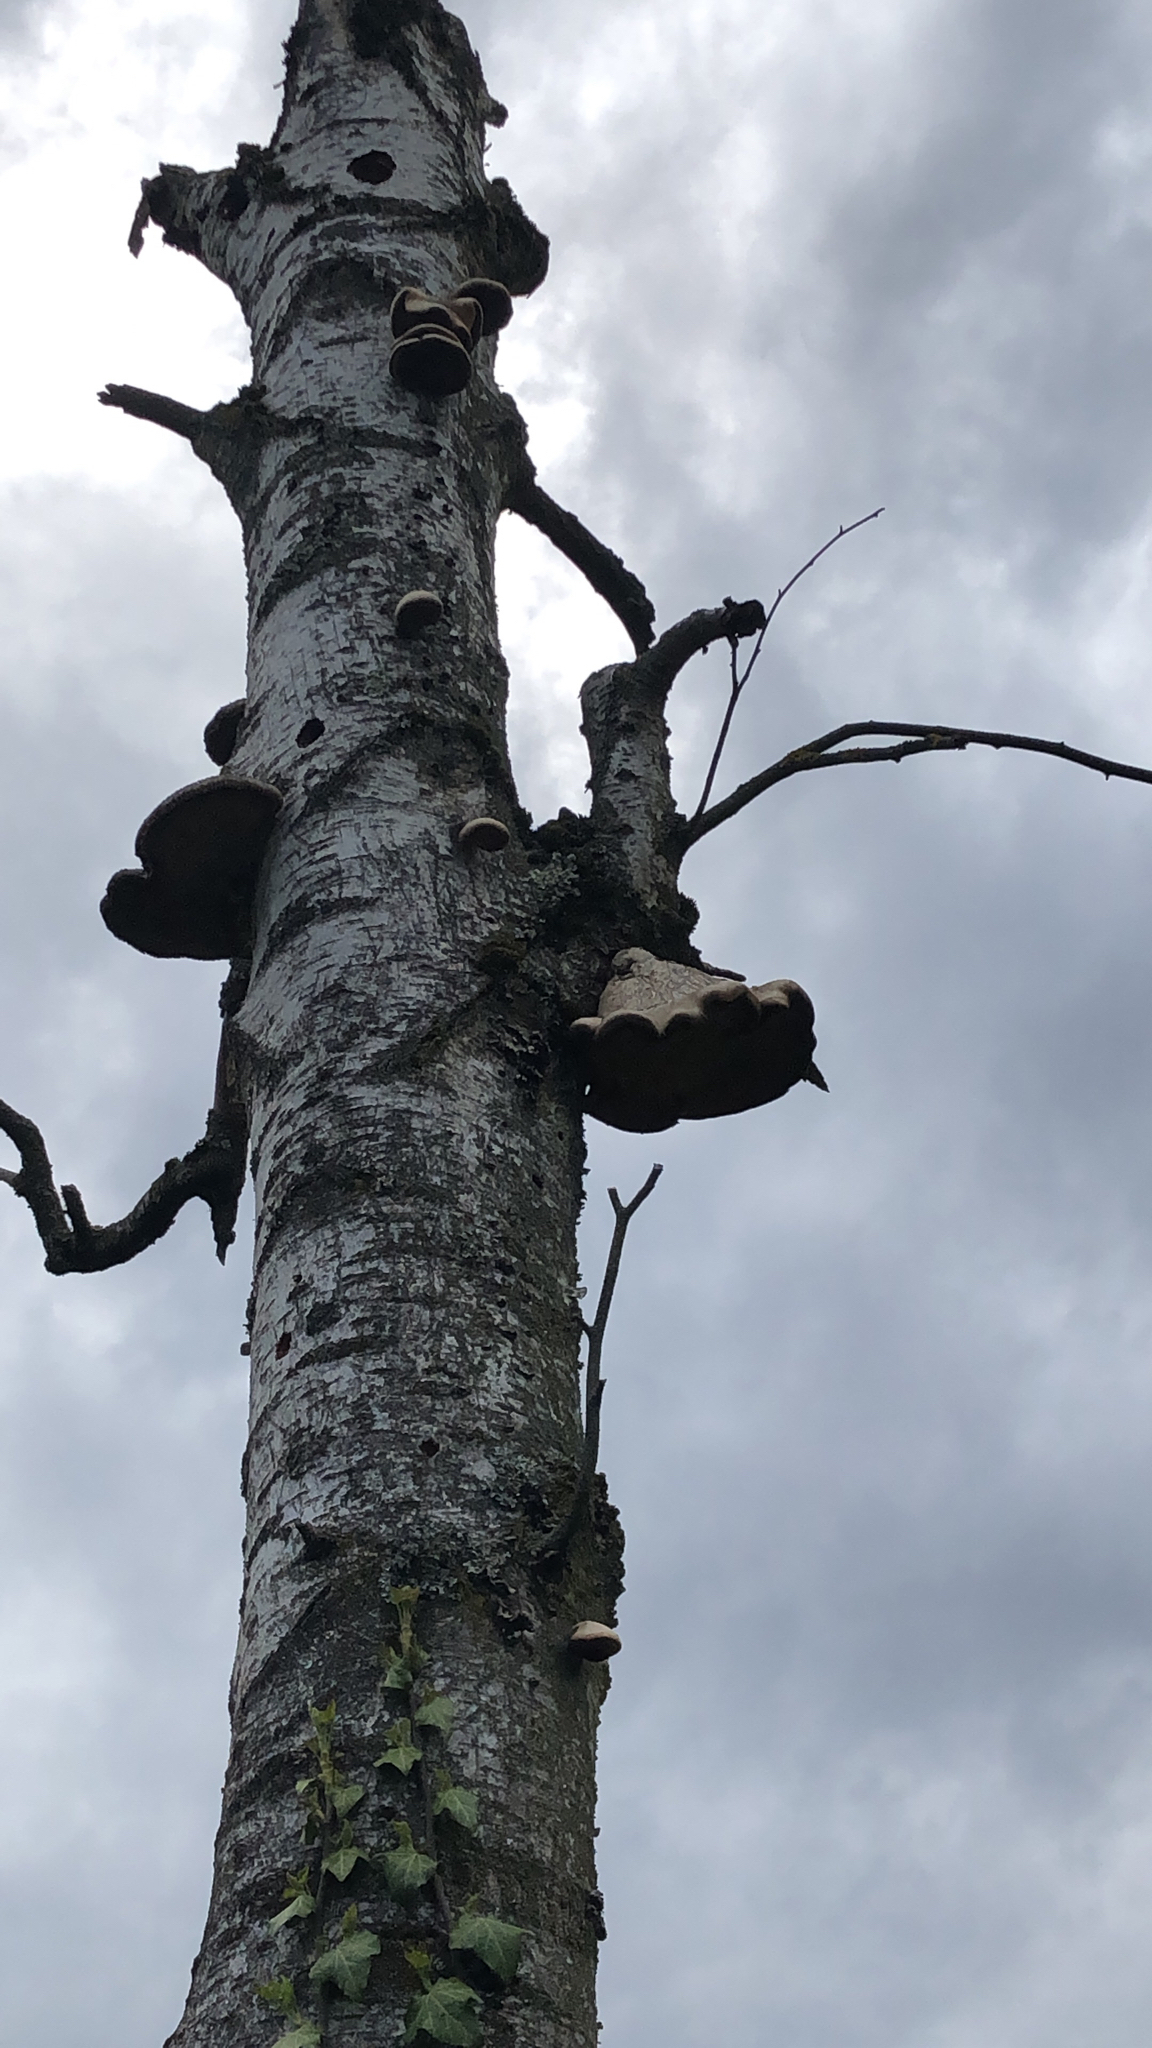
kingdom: Fungi
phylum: Basidiomycota
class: Agaricomycetes
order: Polyporales
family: Fomitopsidaceae
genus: Fomitopsis
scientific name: Fomitopsis betulina
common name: Birch polypore
